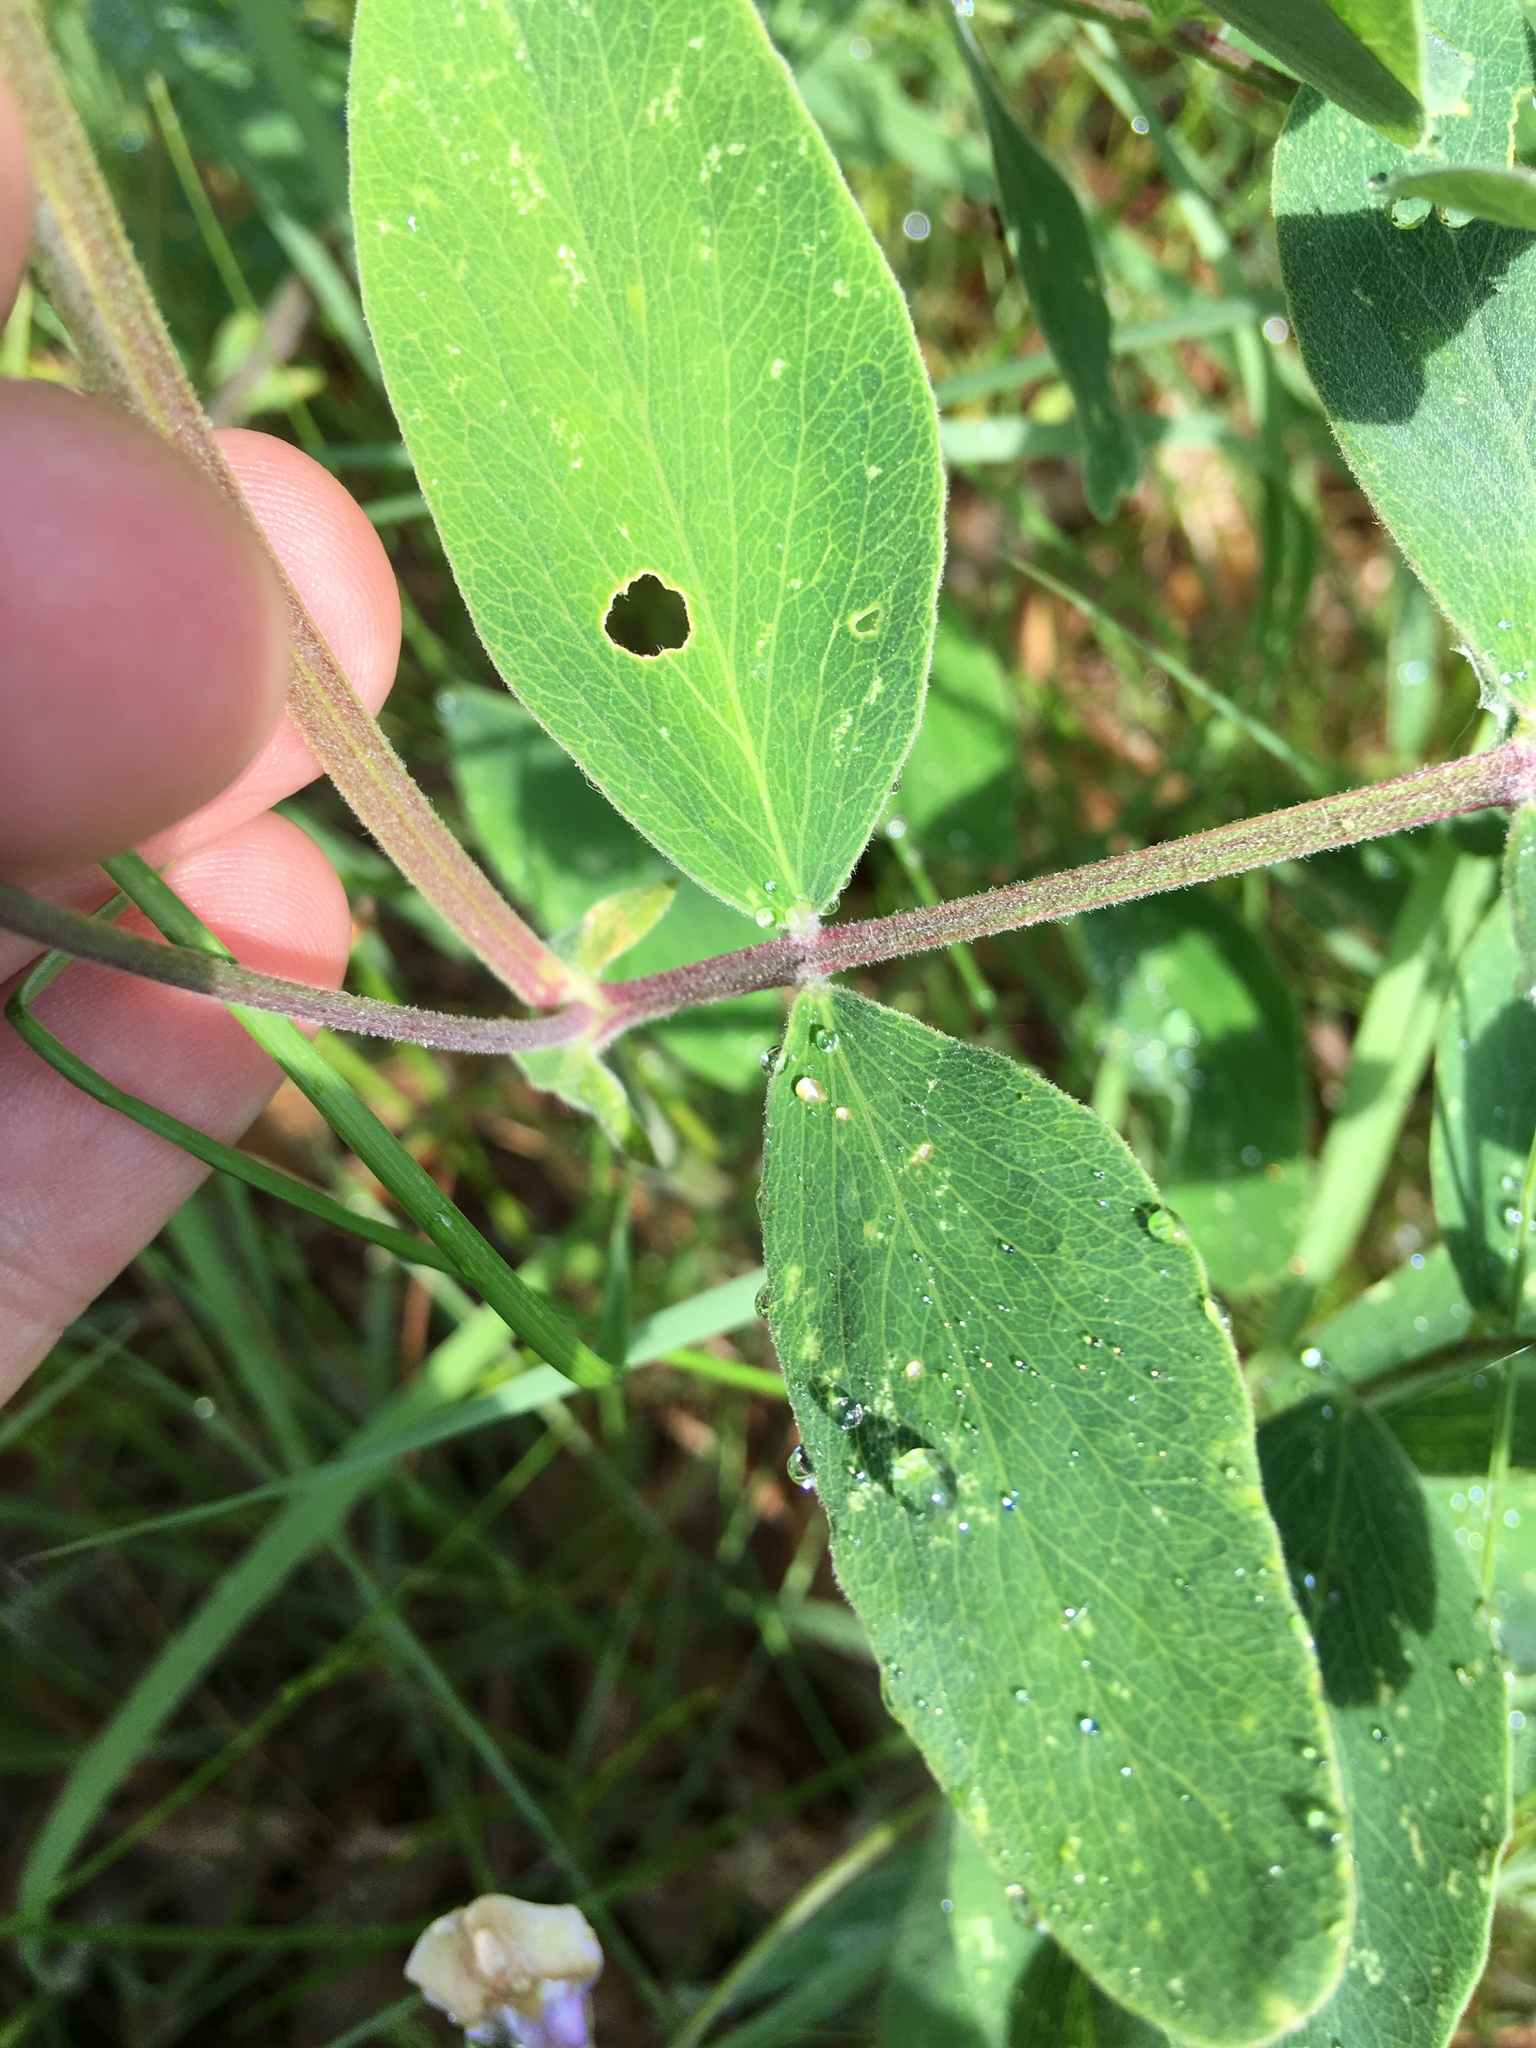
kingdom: Plantae
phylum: Tracheophyta
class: Magnoliopsida
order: Fabales
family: Fabaceae
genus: Lathyrus
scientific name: Lathyrus venosus
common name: Forest-pea
